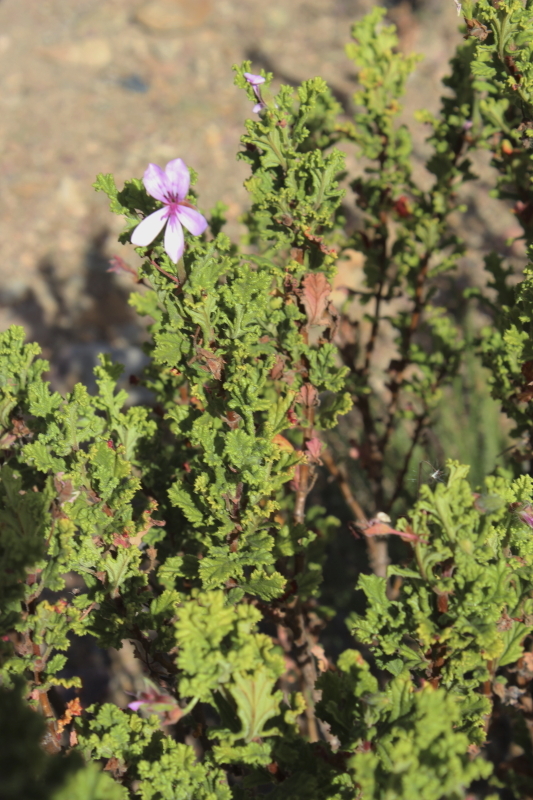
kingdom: Plantae
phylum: Tracheophyta
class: Magnoliopsida
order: Geraniales
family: Geraniaceae
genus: Pelargonium
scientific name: Pelargonium panduriforme
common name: Oakleaf garden geranium
